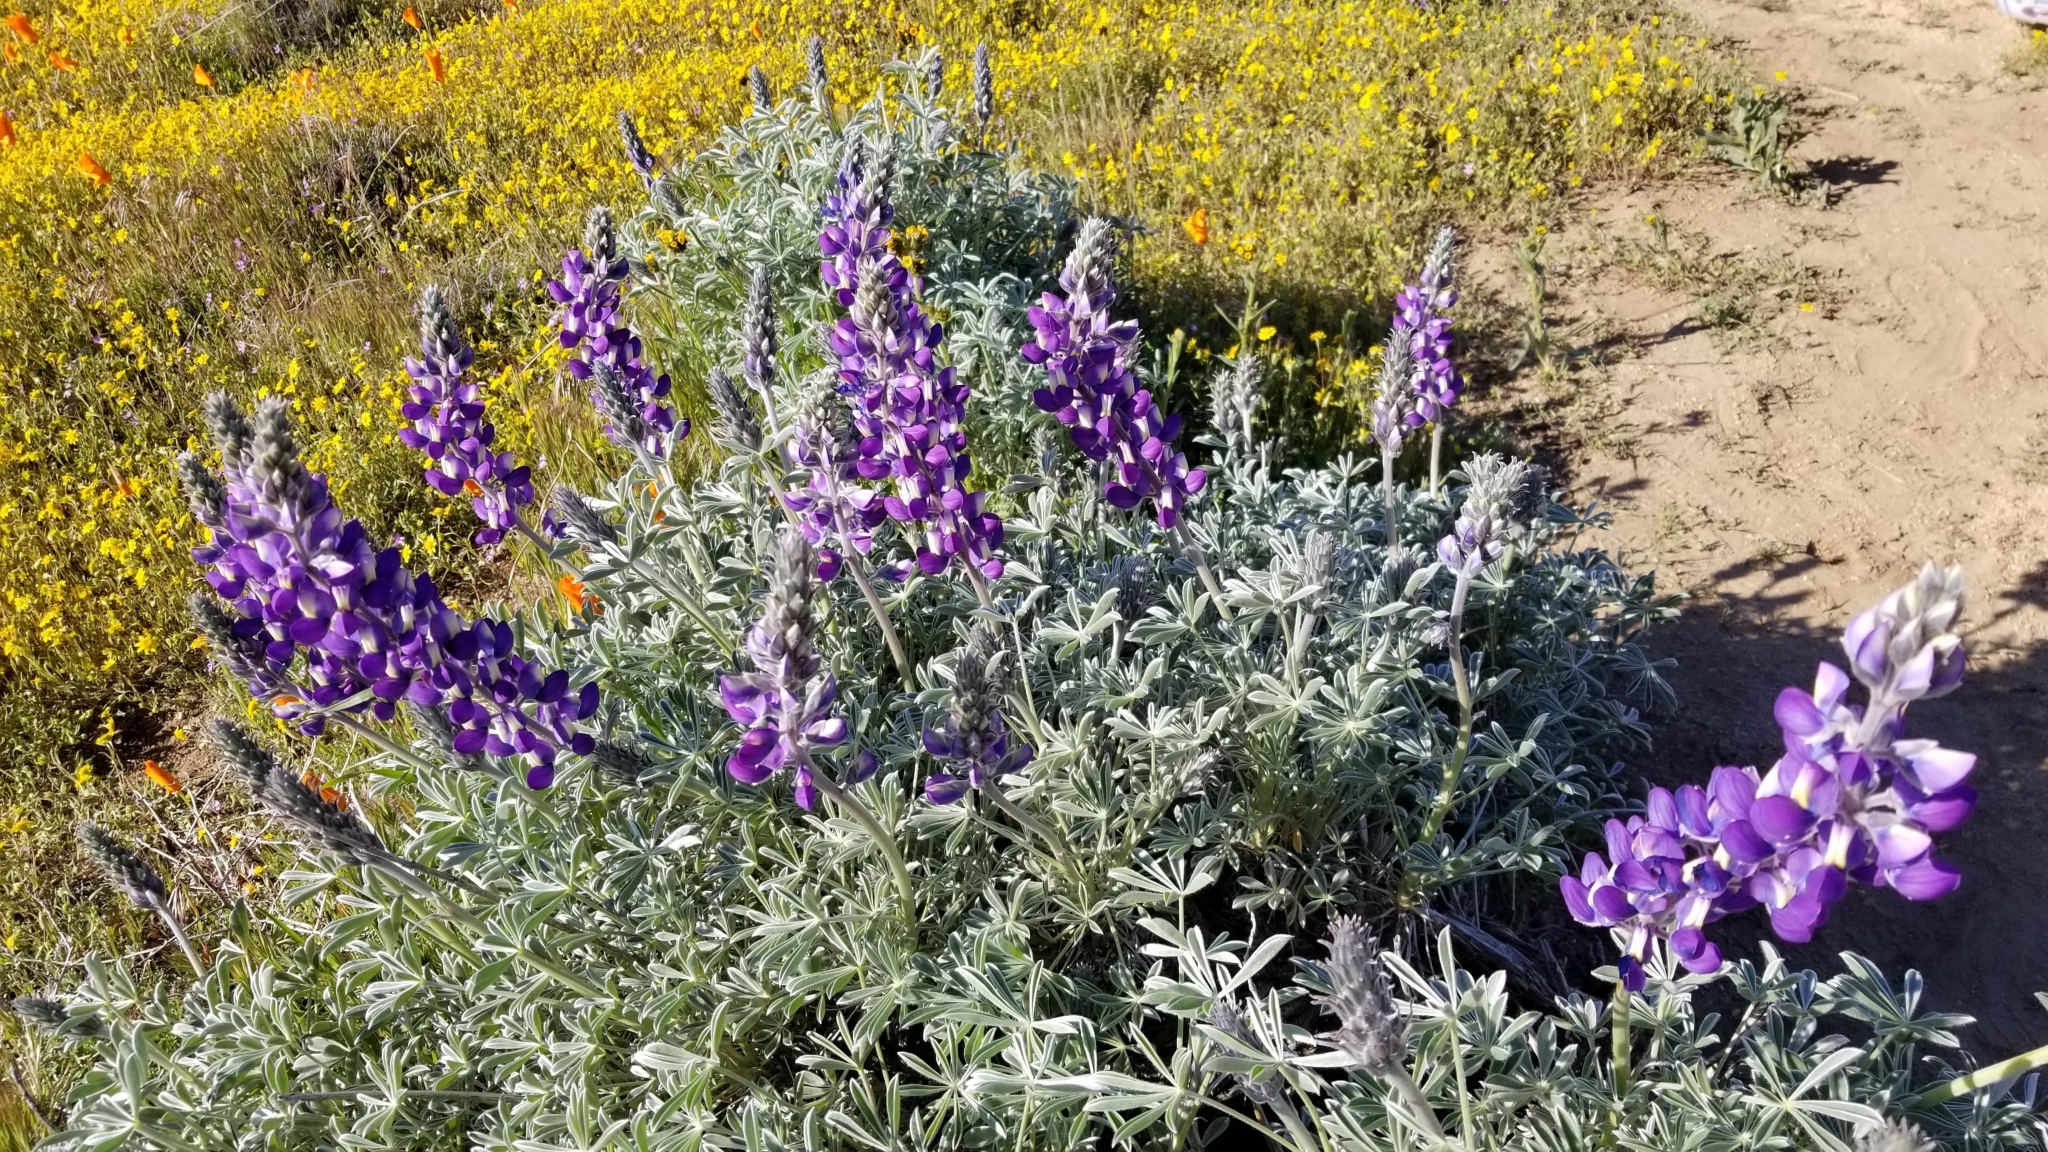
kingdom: Plantae
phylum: Tracheophyta
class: Magnoliopsida
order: Fabales
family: Fabaceae
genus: Lupinus
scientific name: Lupinus albifrons
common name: Foothill lupine
